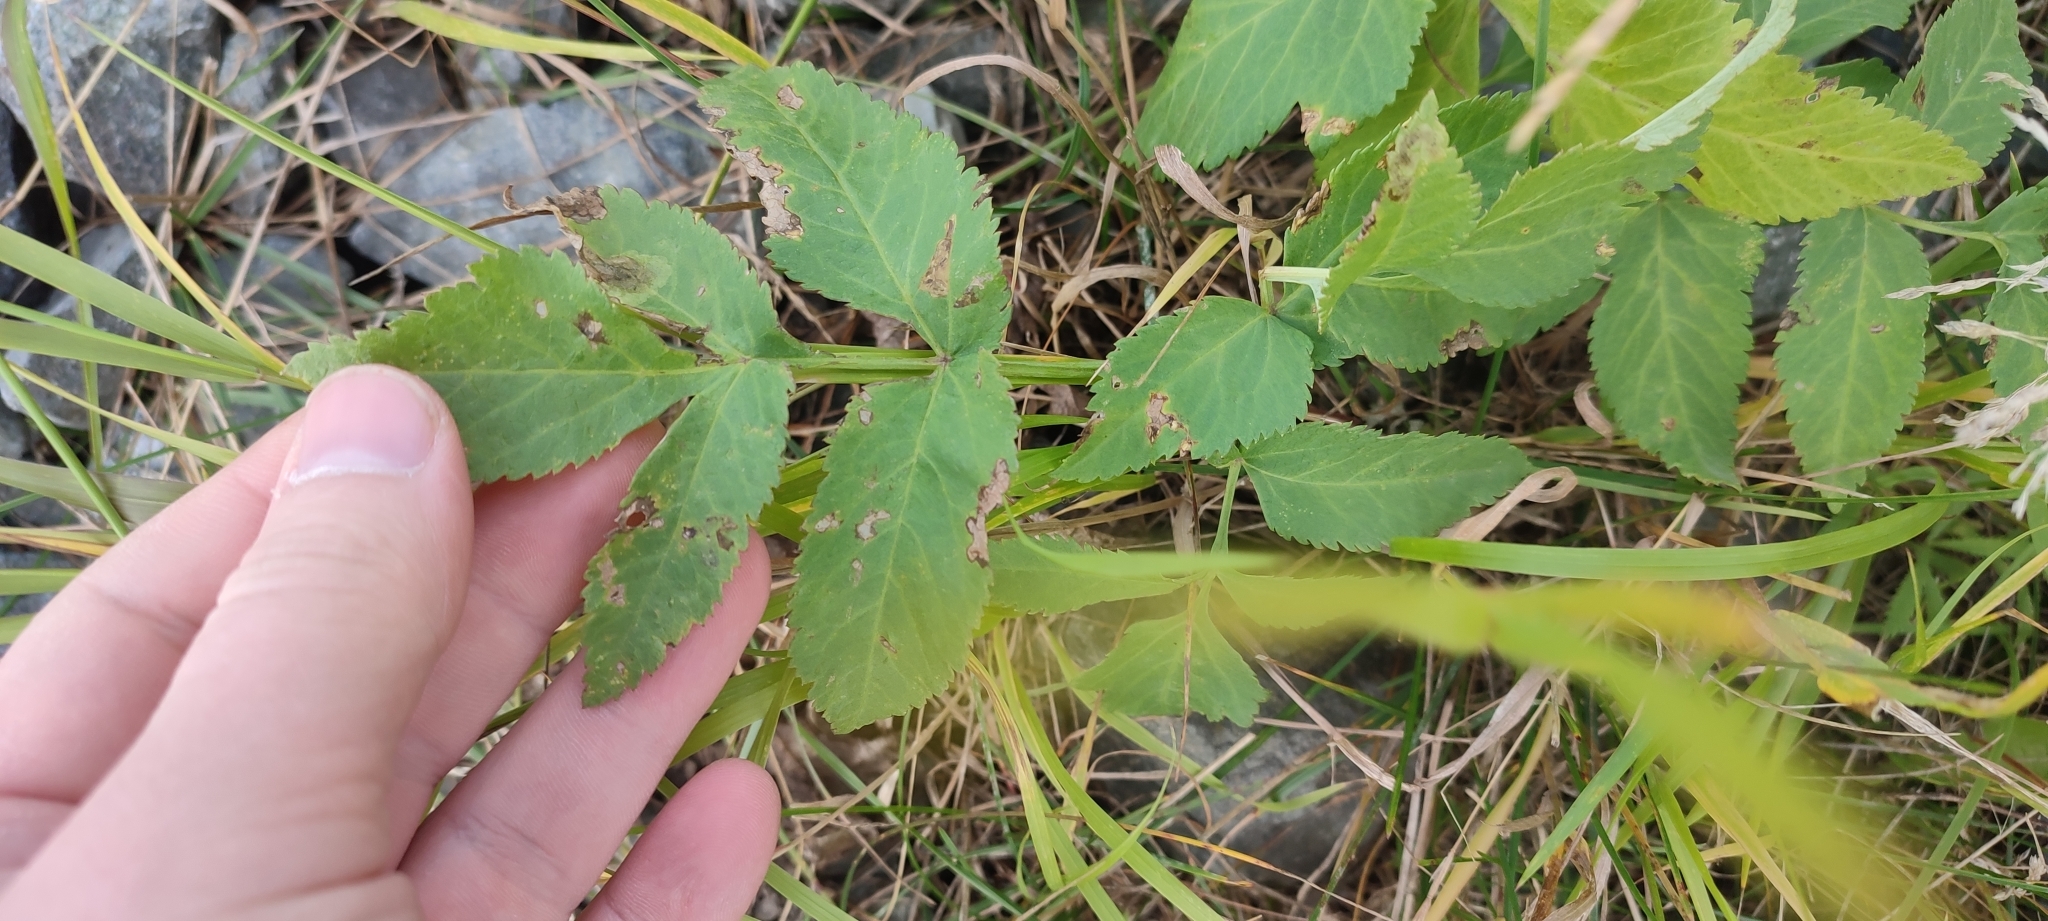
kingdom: Plantae
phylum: Tracheophyta
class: Magnoliopsida
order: Apiales
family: Apiaceae
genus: Angelica
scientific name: Angelica decurrens
